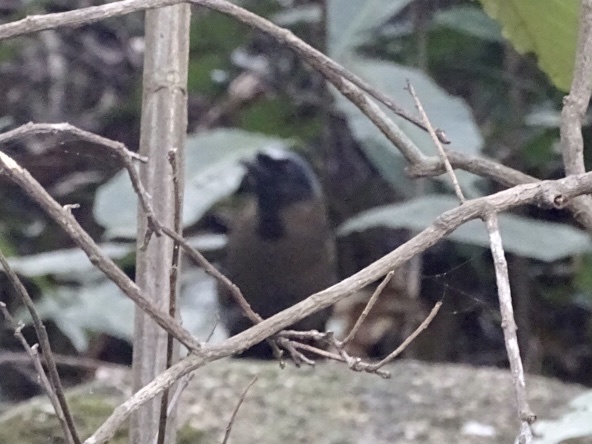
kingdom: Animalia
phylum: Chordata
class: Aves
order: Passeriformes
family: Leiothrichidae
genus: Garrulax
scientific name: Garrulax chinensis
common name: Black-throated laughingthrush
